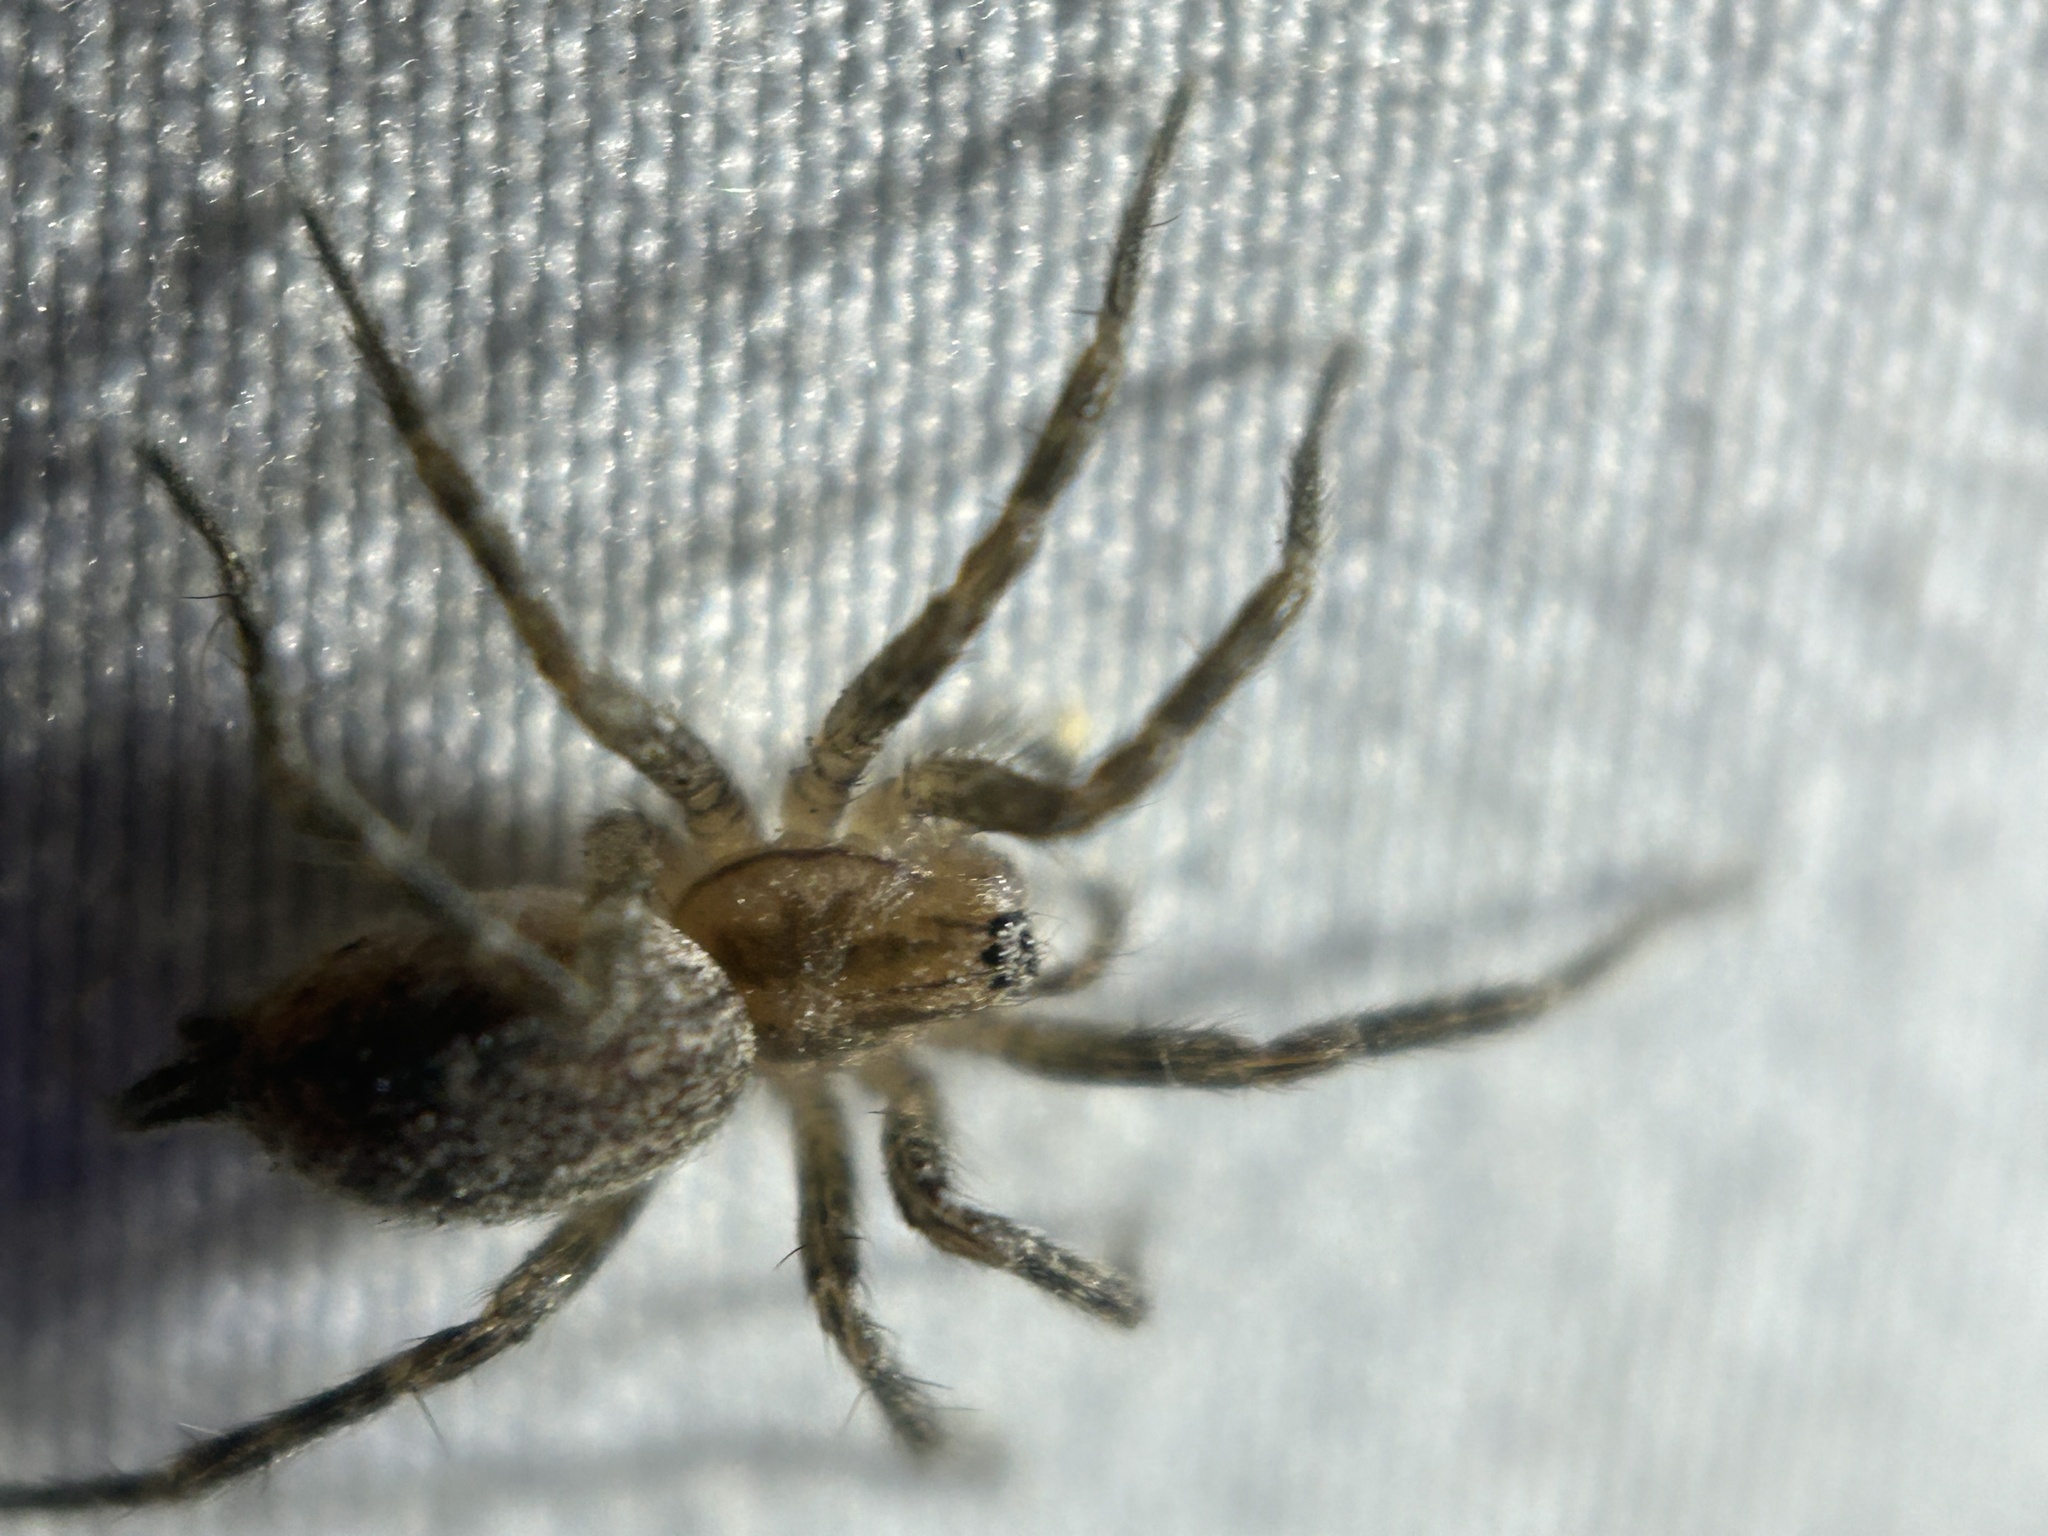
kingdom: Animalia
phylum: Arthropoda
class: Arachnida
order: Araneae
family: Agelenidae
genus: Agelenopsis
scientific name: Agelenopsis
